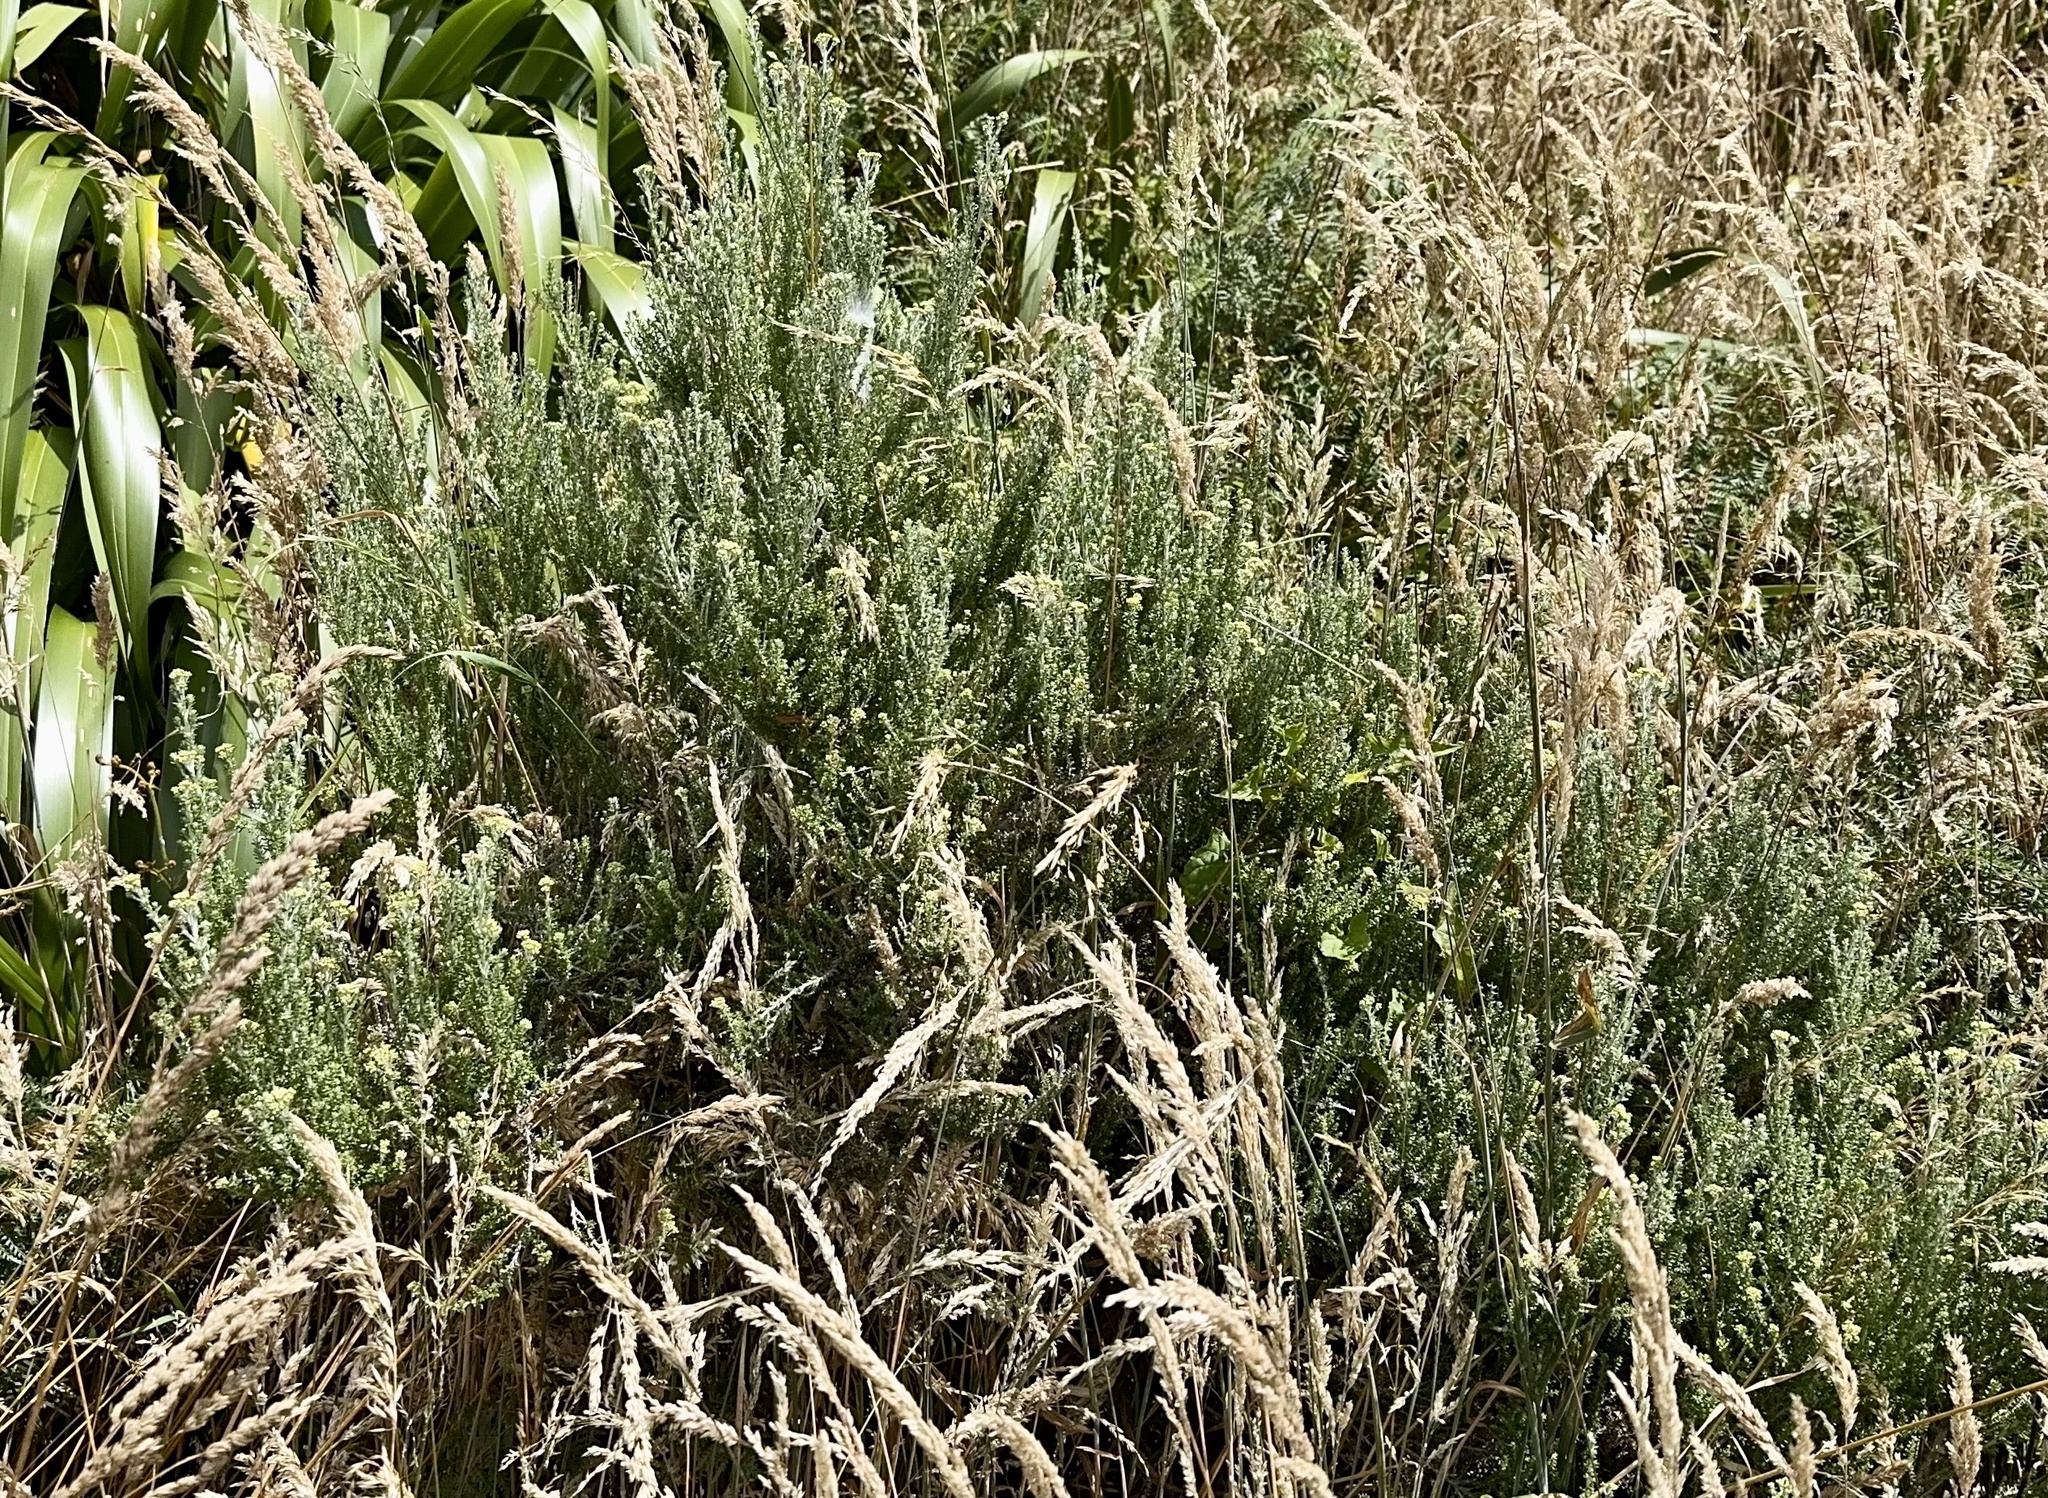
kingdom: Plantae
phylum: Tracheophyta
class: Magnoliopsida
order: Asterales
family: Asteraceae
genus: Ozothamnus
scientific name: Ozothamnus leptophyllus
